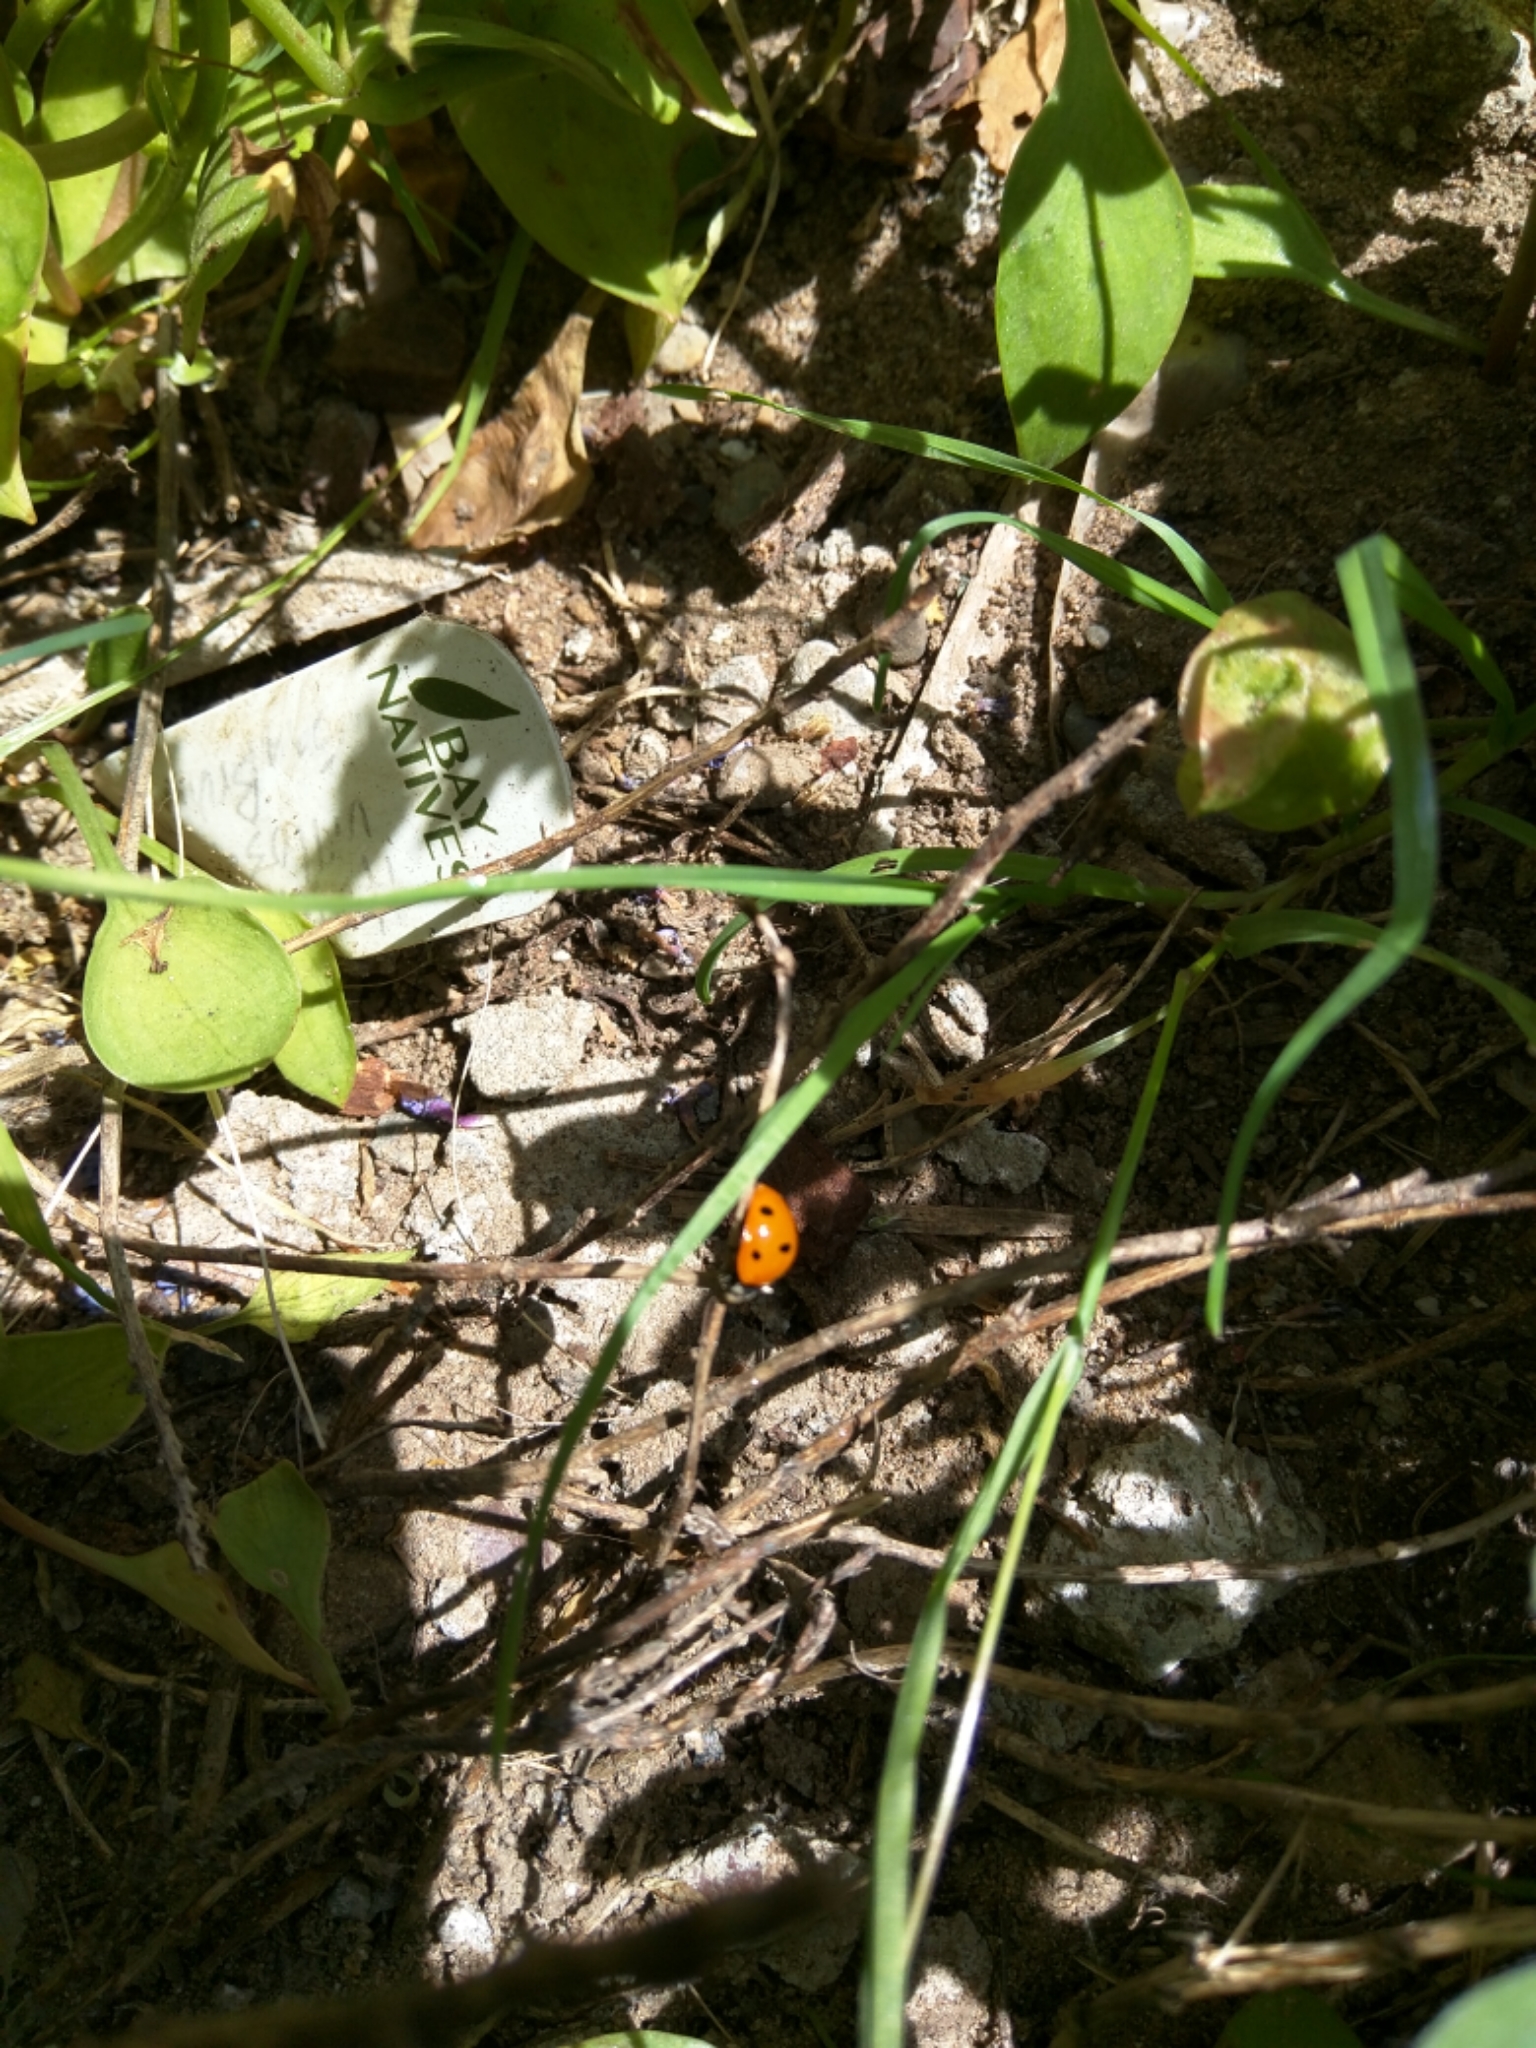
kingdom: Animalia
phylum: Arthropoda
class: Insecta
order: Coleoptera
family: Coccinellidae
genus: Coccinella
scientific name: Coccinella septempunctata
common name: Sevenspotted lady beetle
